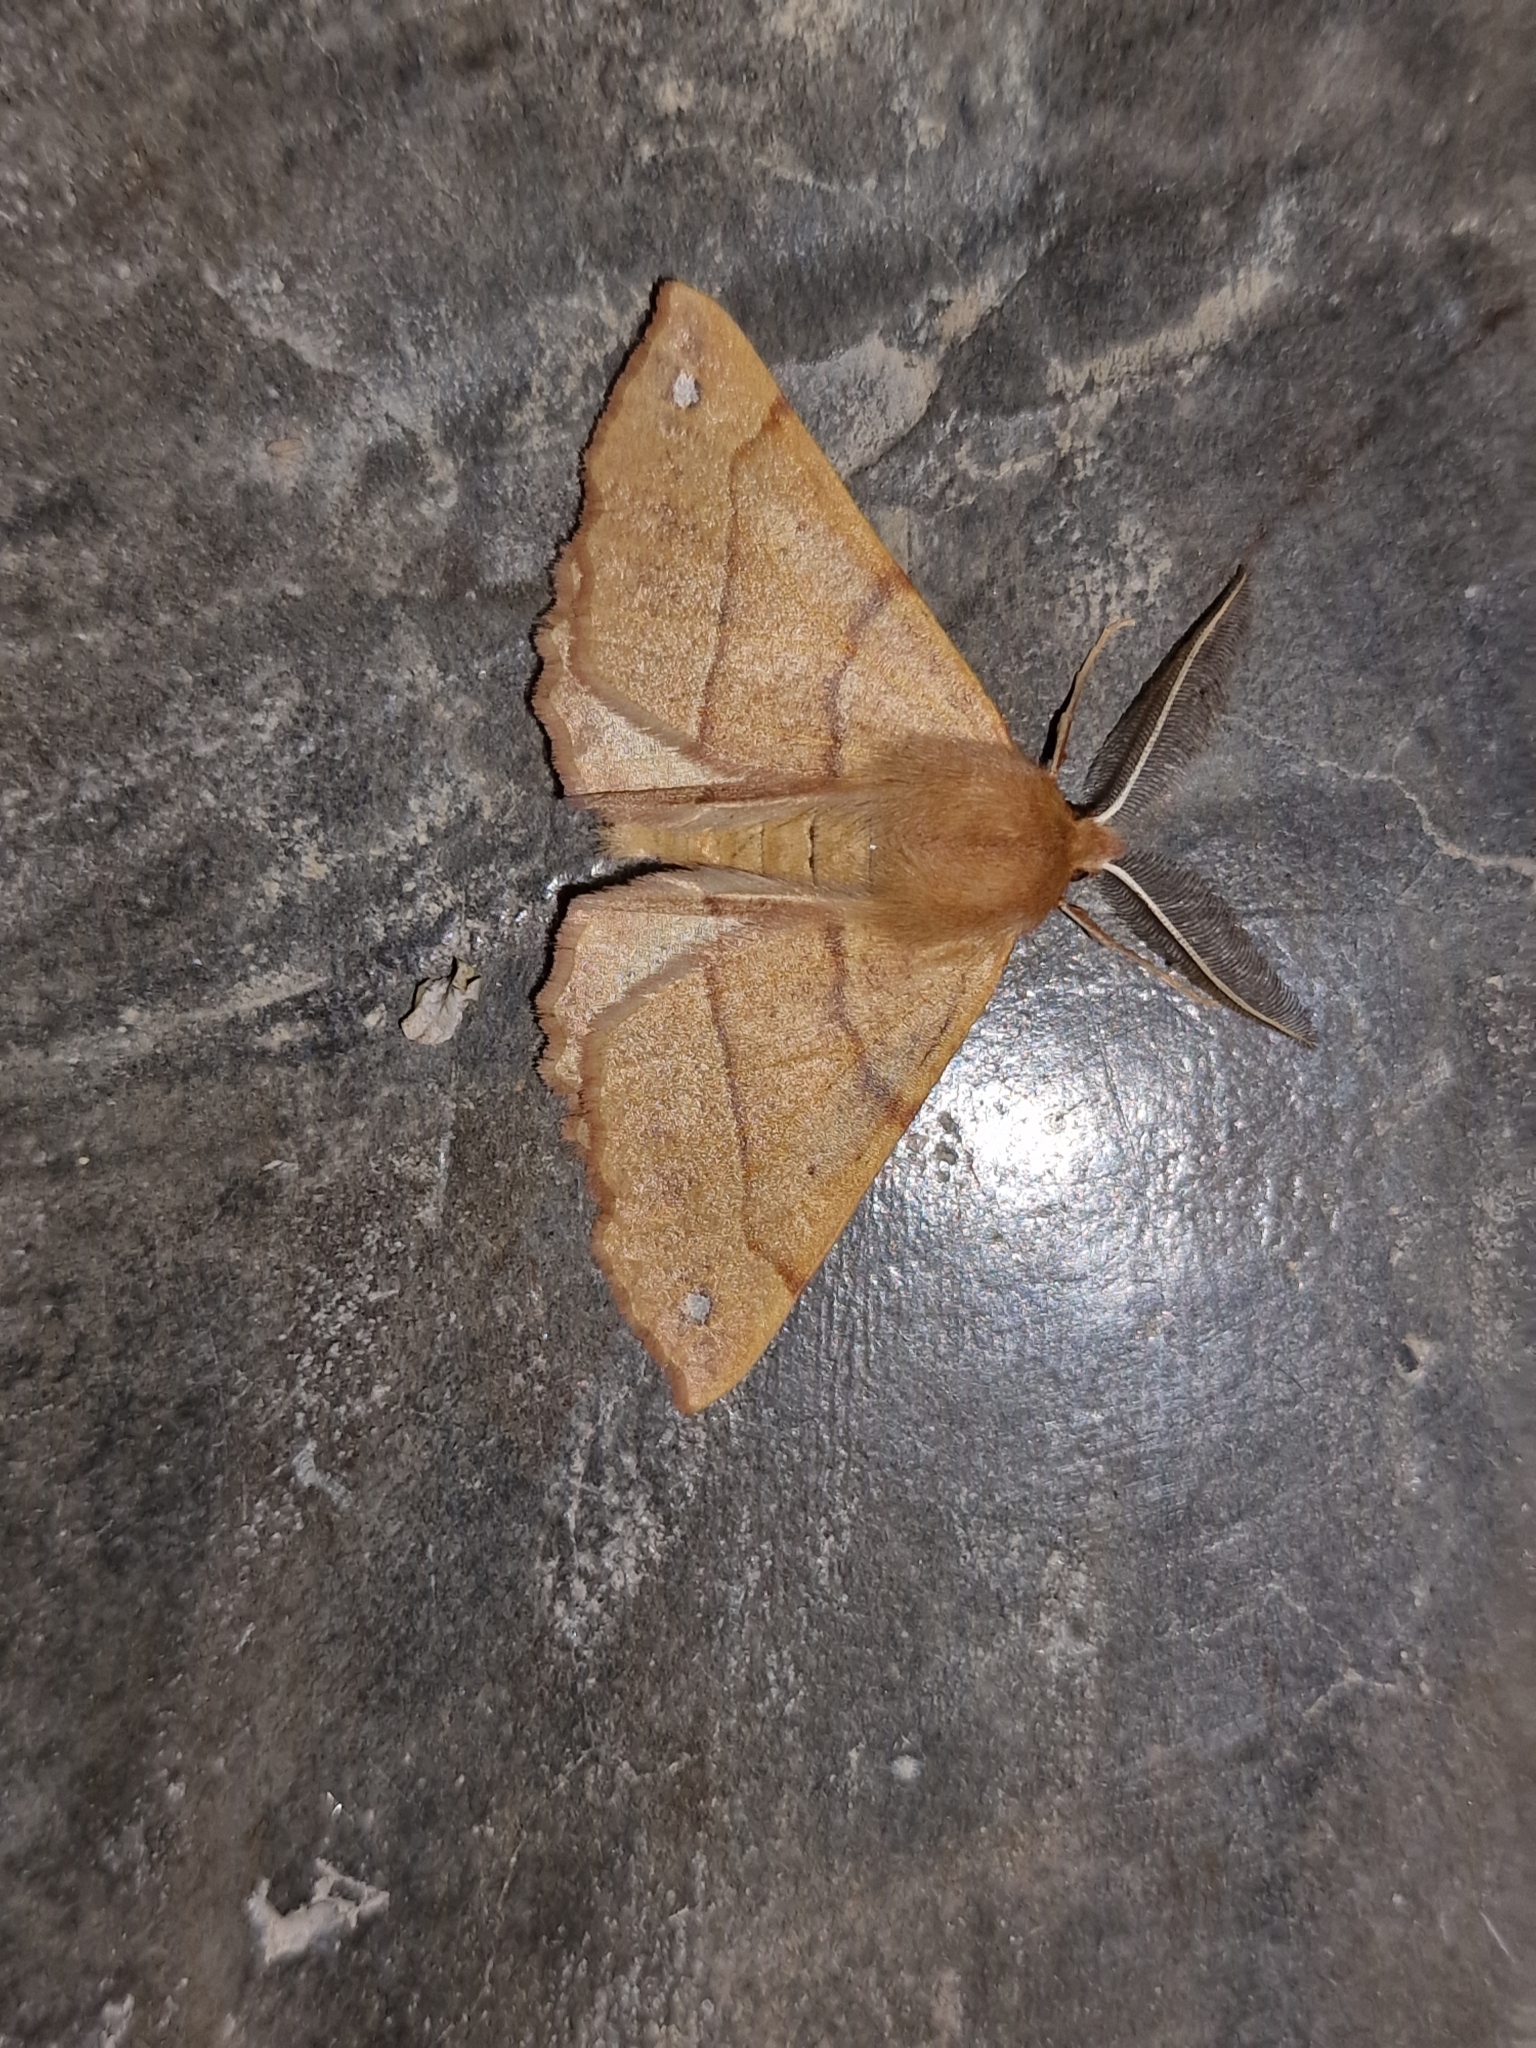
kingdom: Animalia
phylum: Arthropoda
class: Insecta
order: Lepidoptera
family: Geometridae
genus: Colotois
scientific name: Colotois pennaria
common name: Feathered thorn
